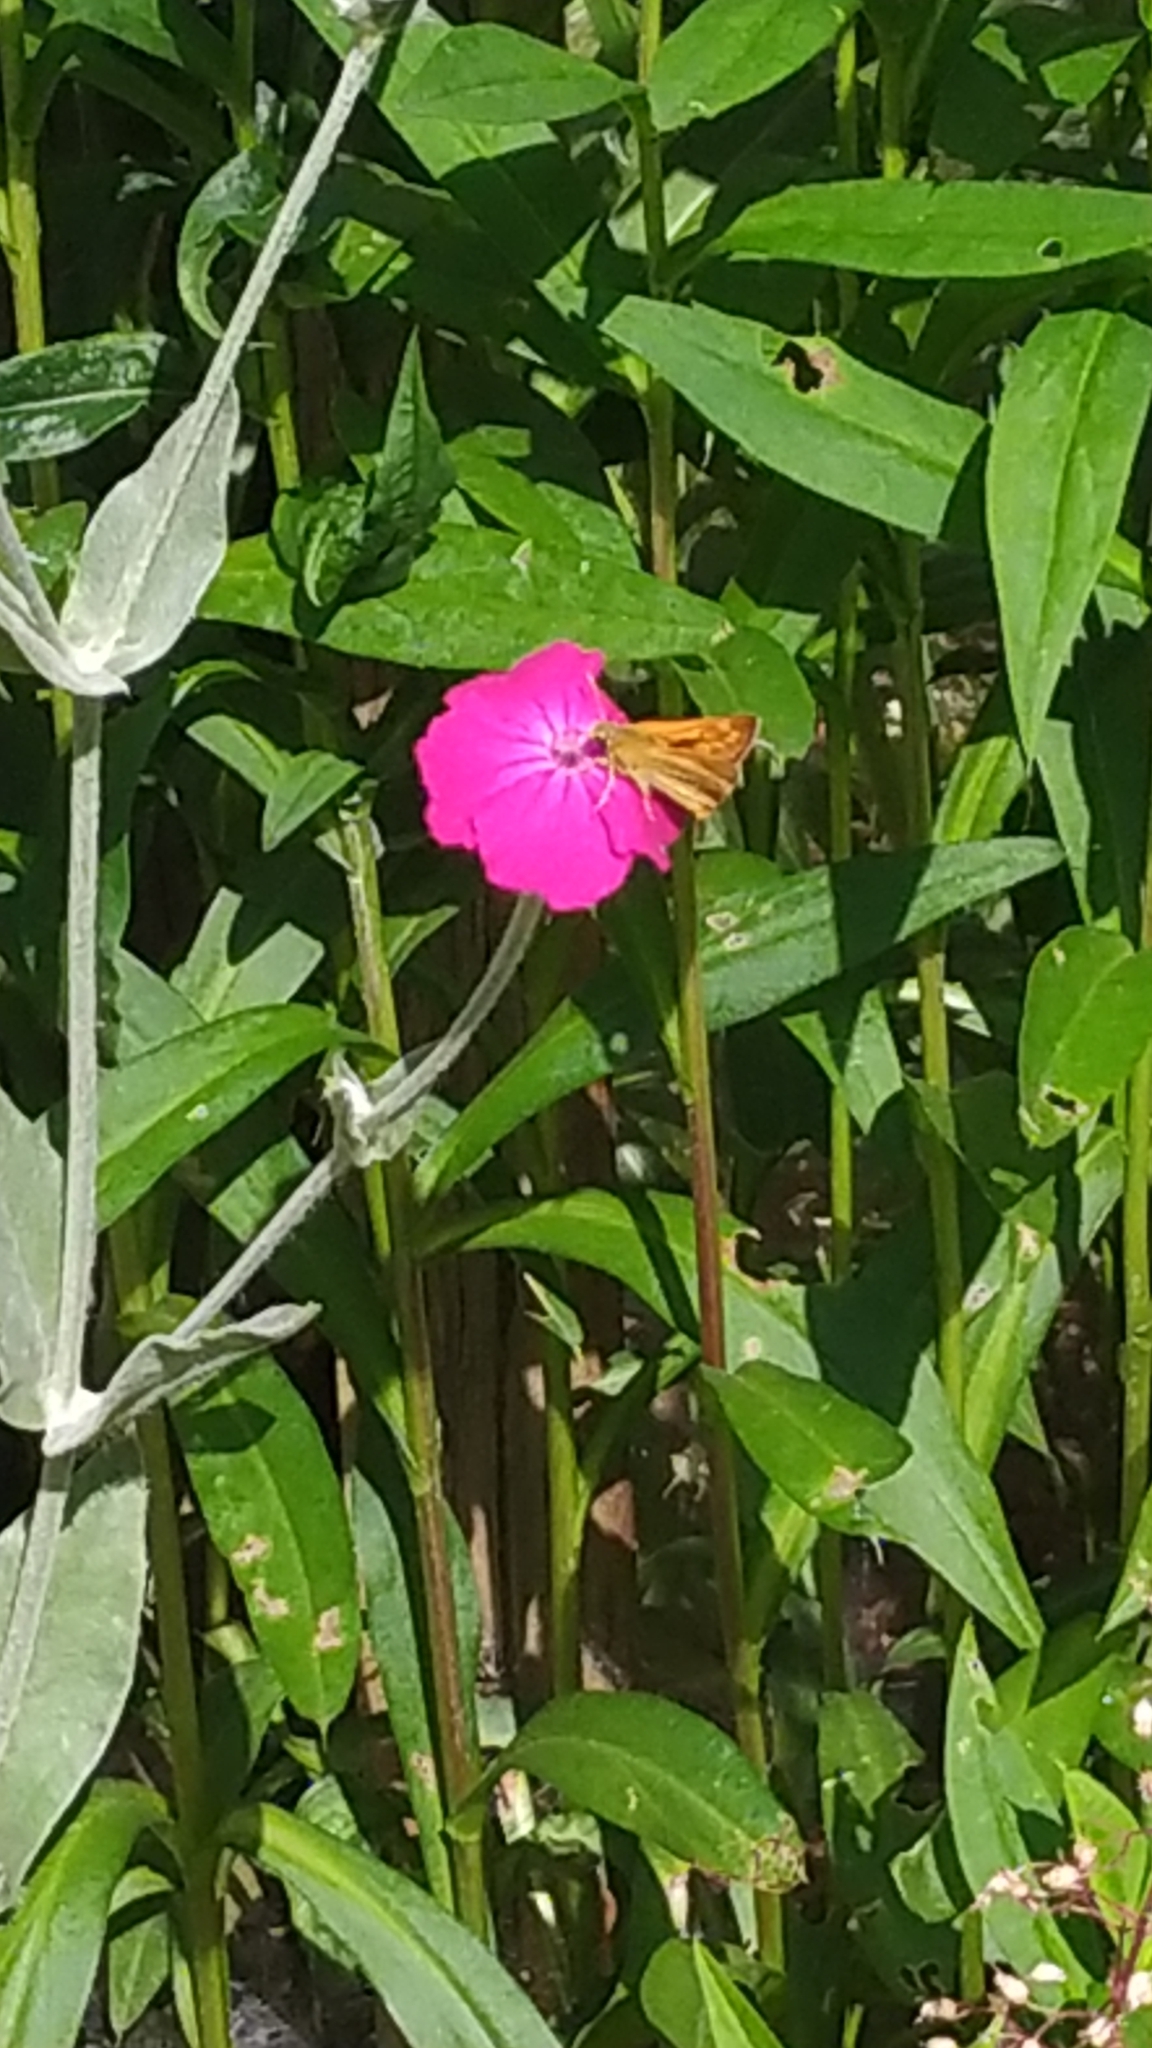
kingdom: Animalia
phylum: Arthropoda
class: Insecta
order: Lepidoptera
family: Hesperiidae
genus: Ochlodes
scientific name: Ochlodes venata
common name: Large skipper
